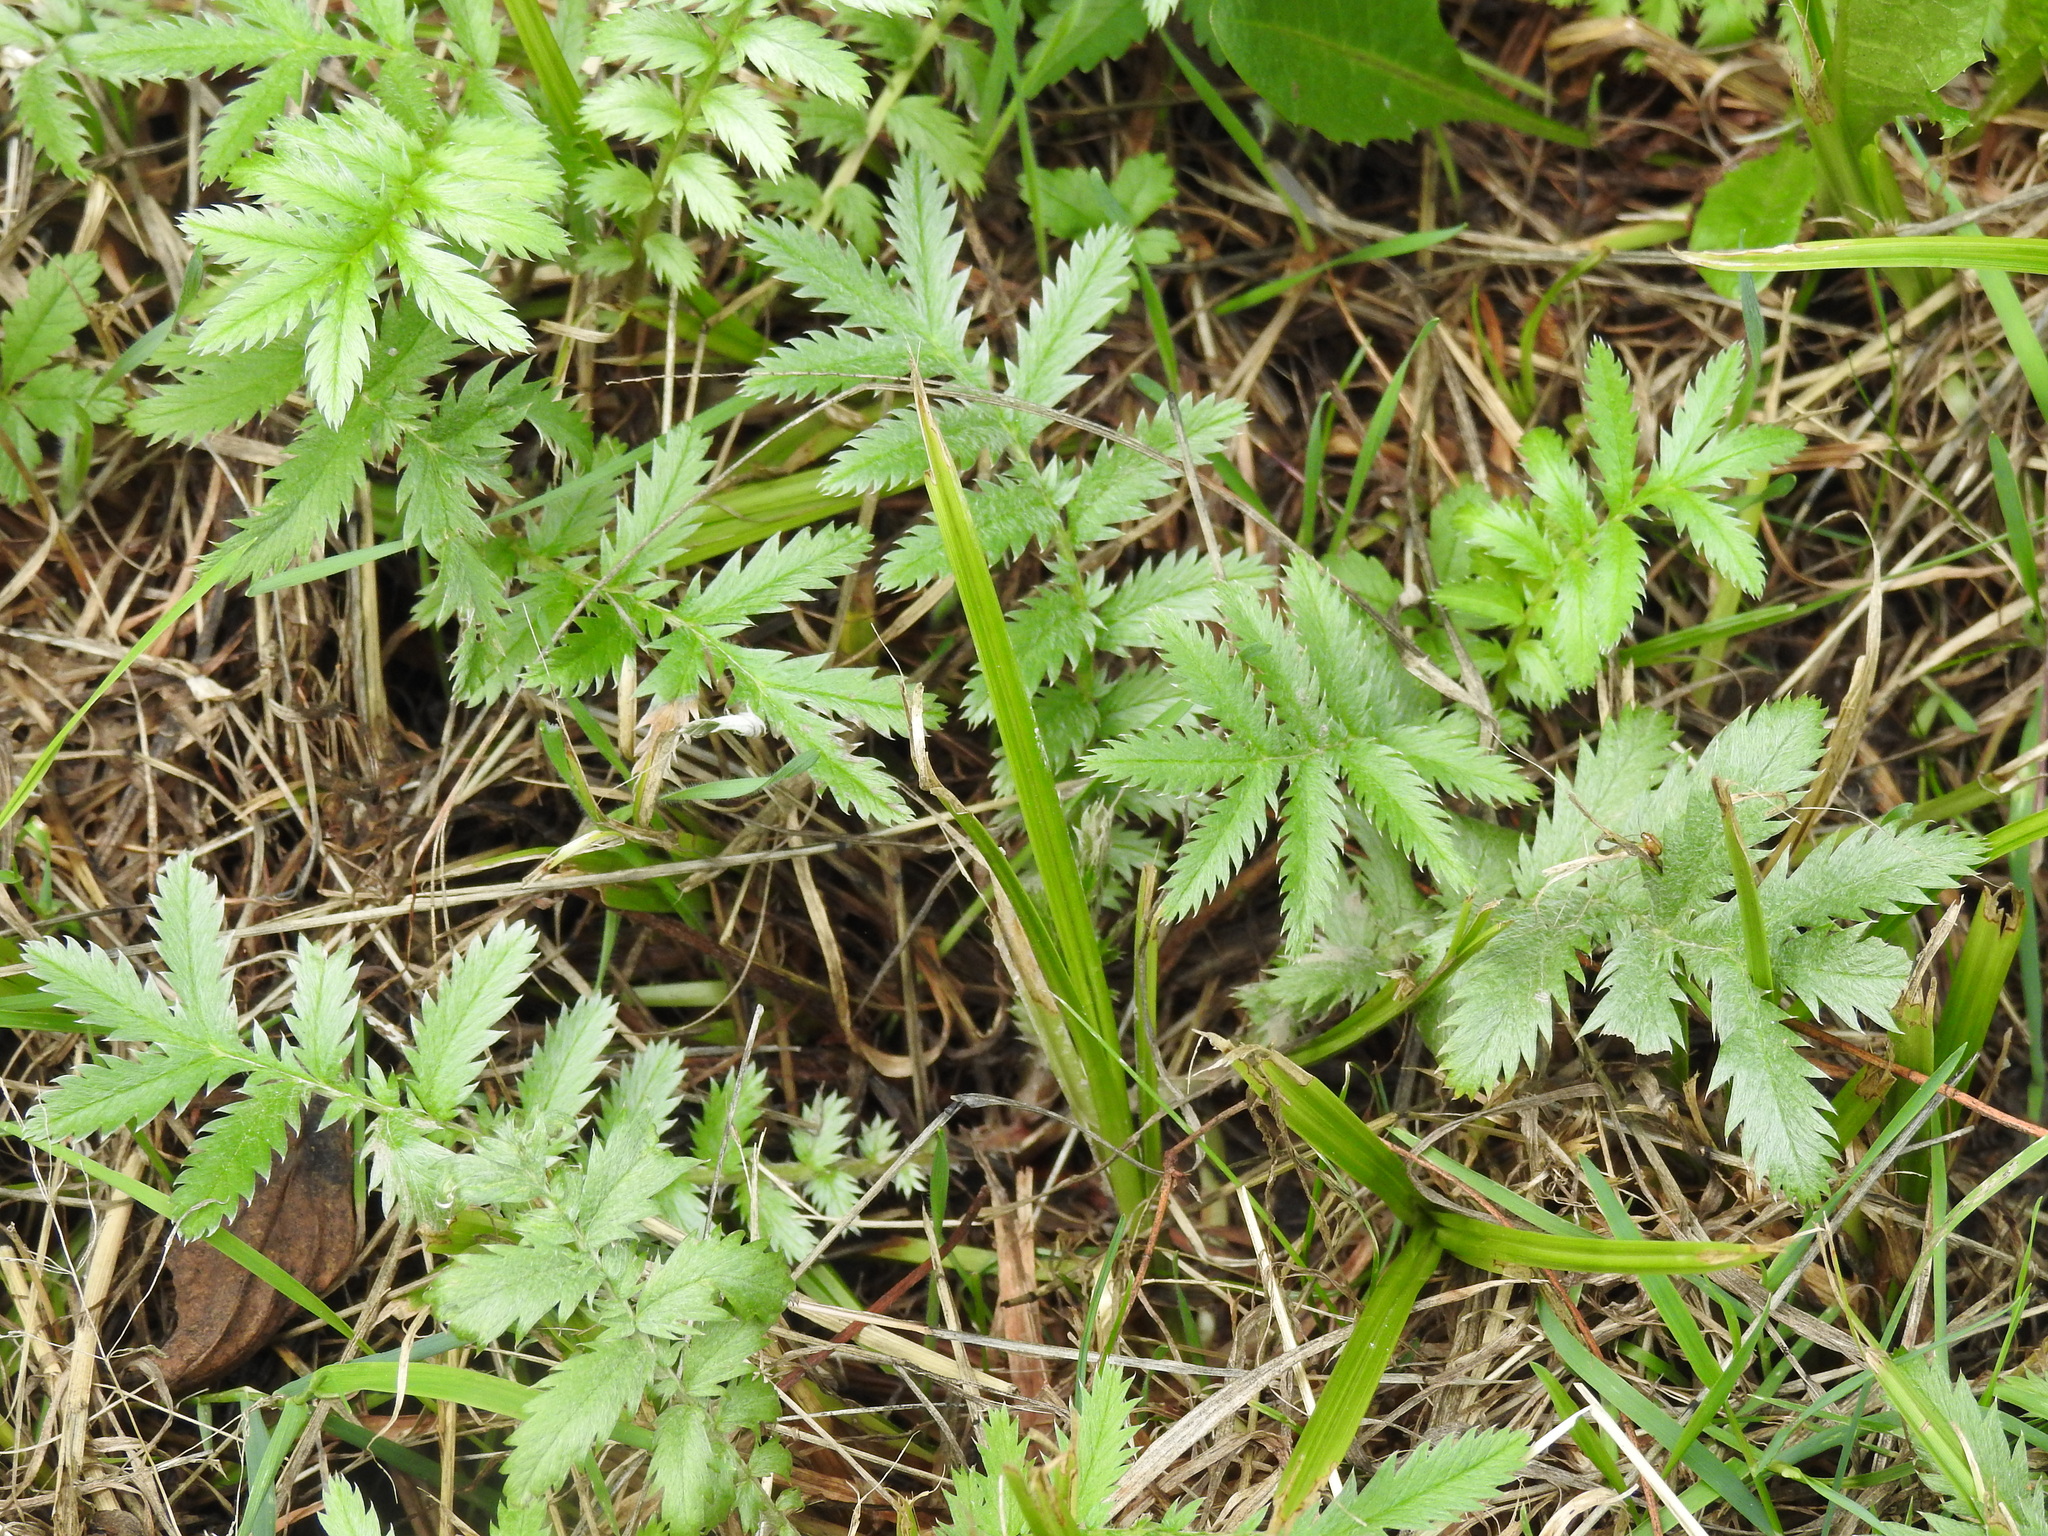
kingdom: Plantae
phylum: Tracheophyta
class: Magnoliopsida
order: Rosales
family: Rosaceae
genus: Argentina
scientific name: Argentina anserina
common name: Common silverweed
